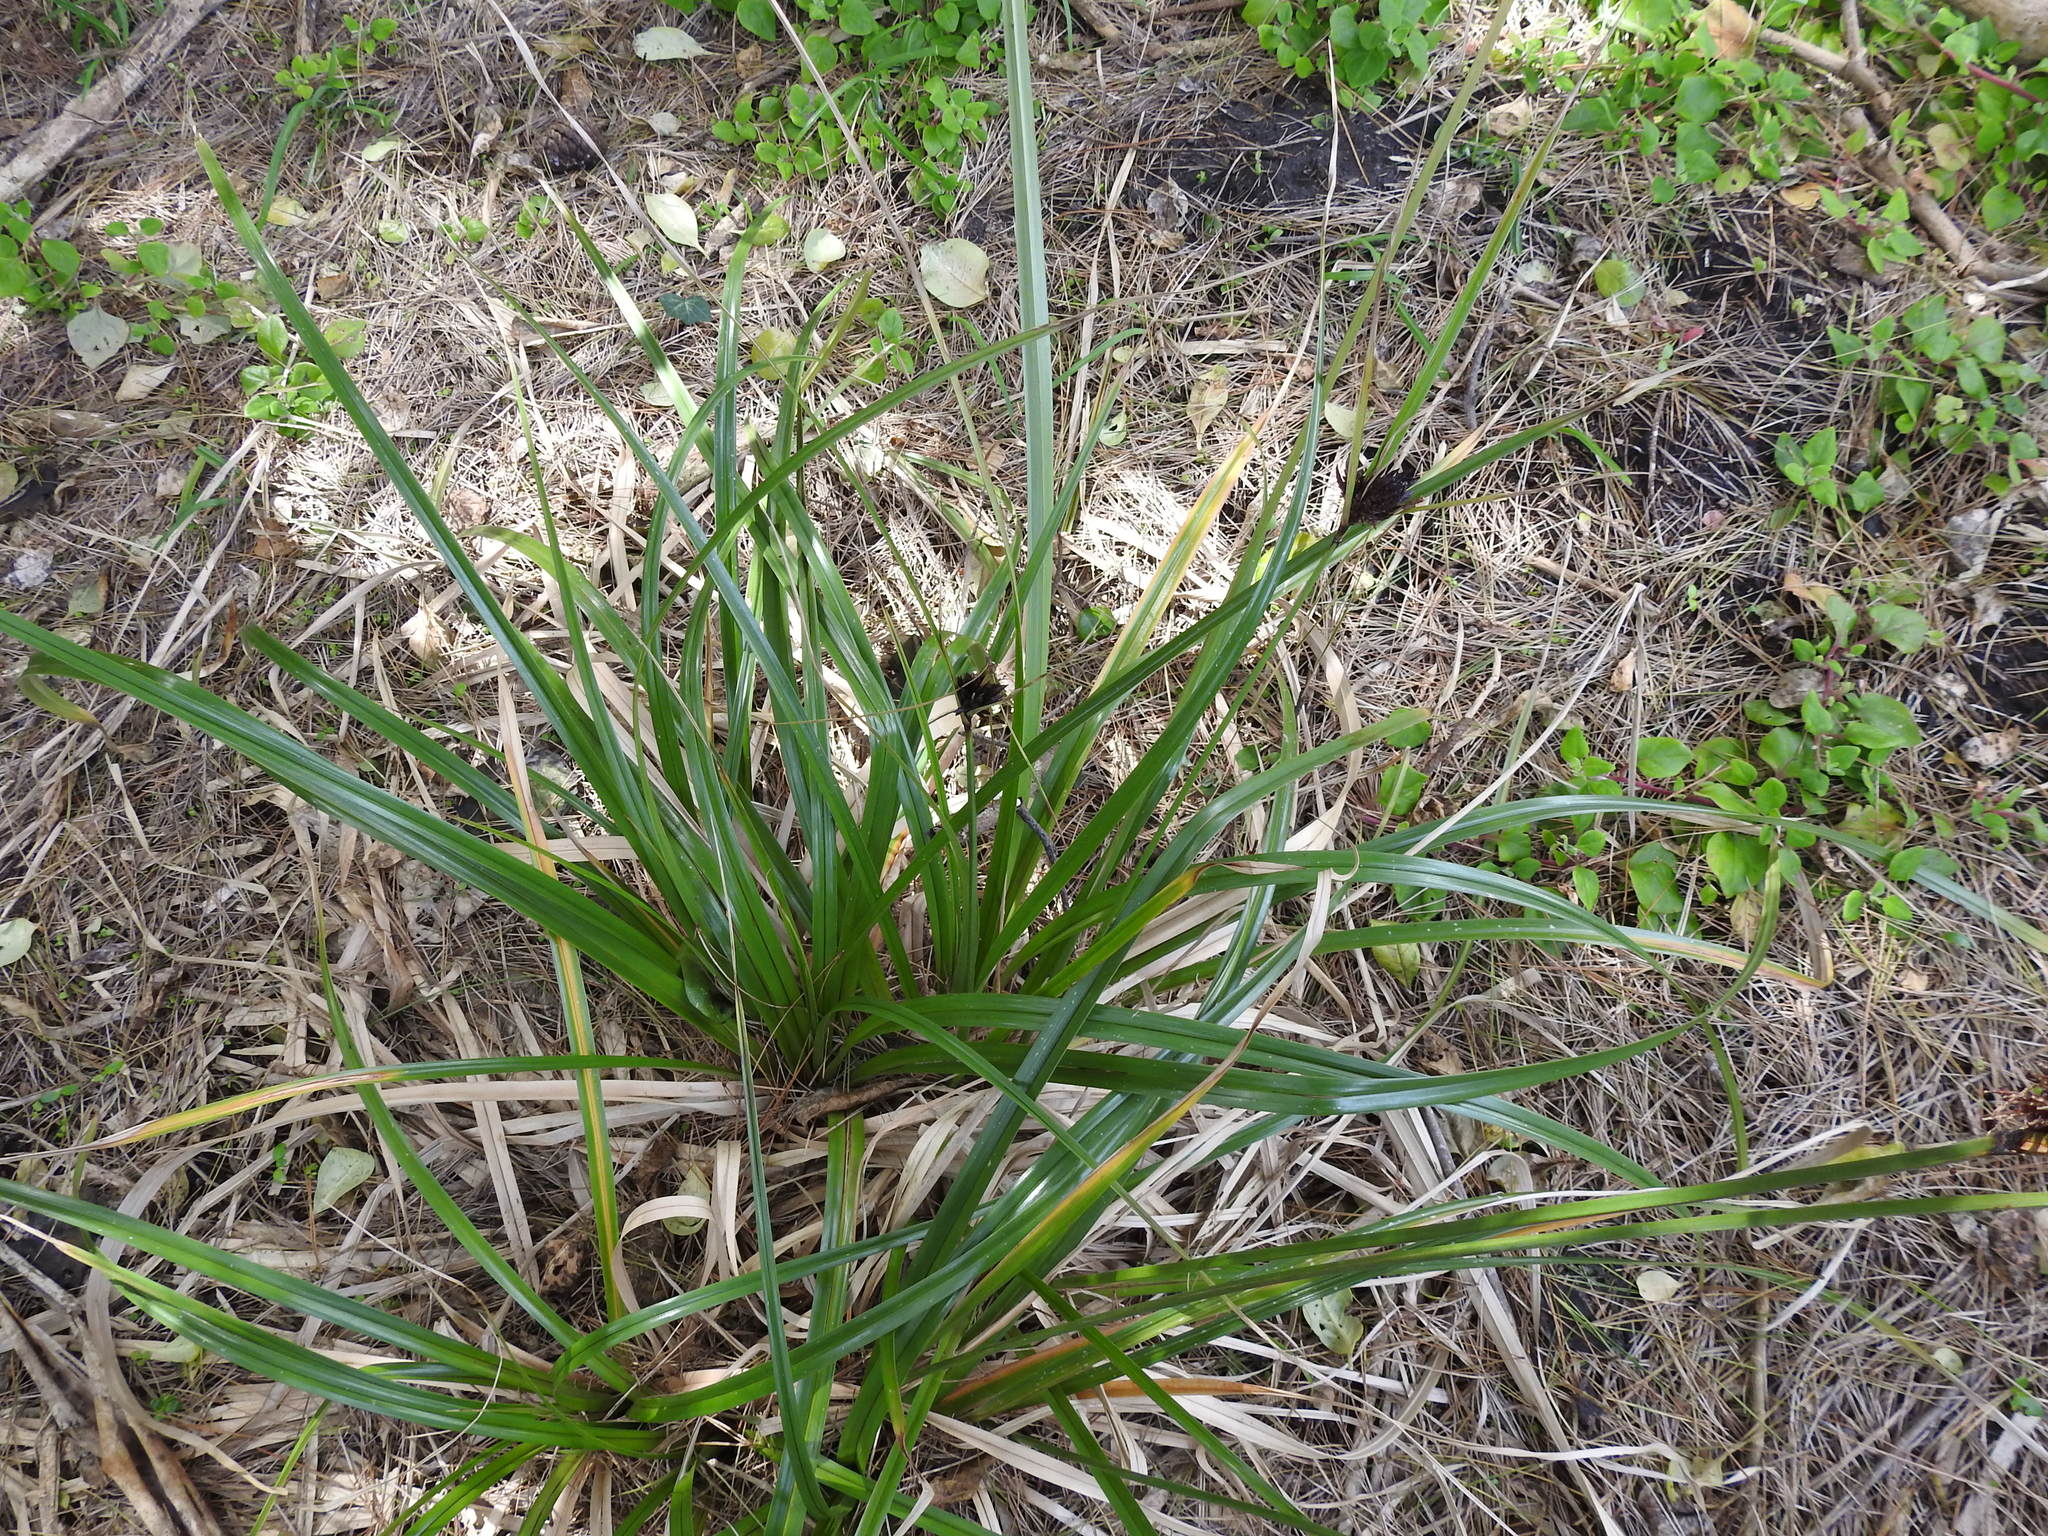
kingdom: Plantae
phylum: Tracheophyta
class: Liliopsida
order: Poales
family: Cyperaceae
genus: Cyperus
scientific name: Cyperus ustulatus
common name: Giant umbrella-sedge
